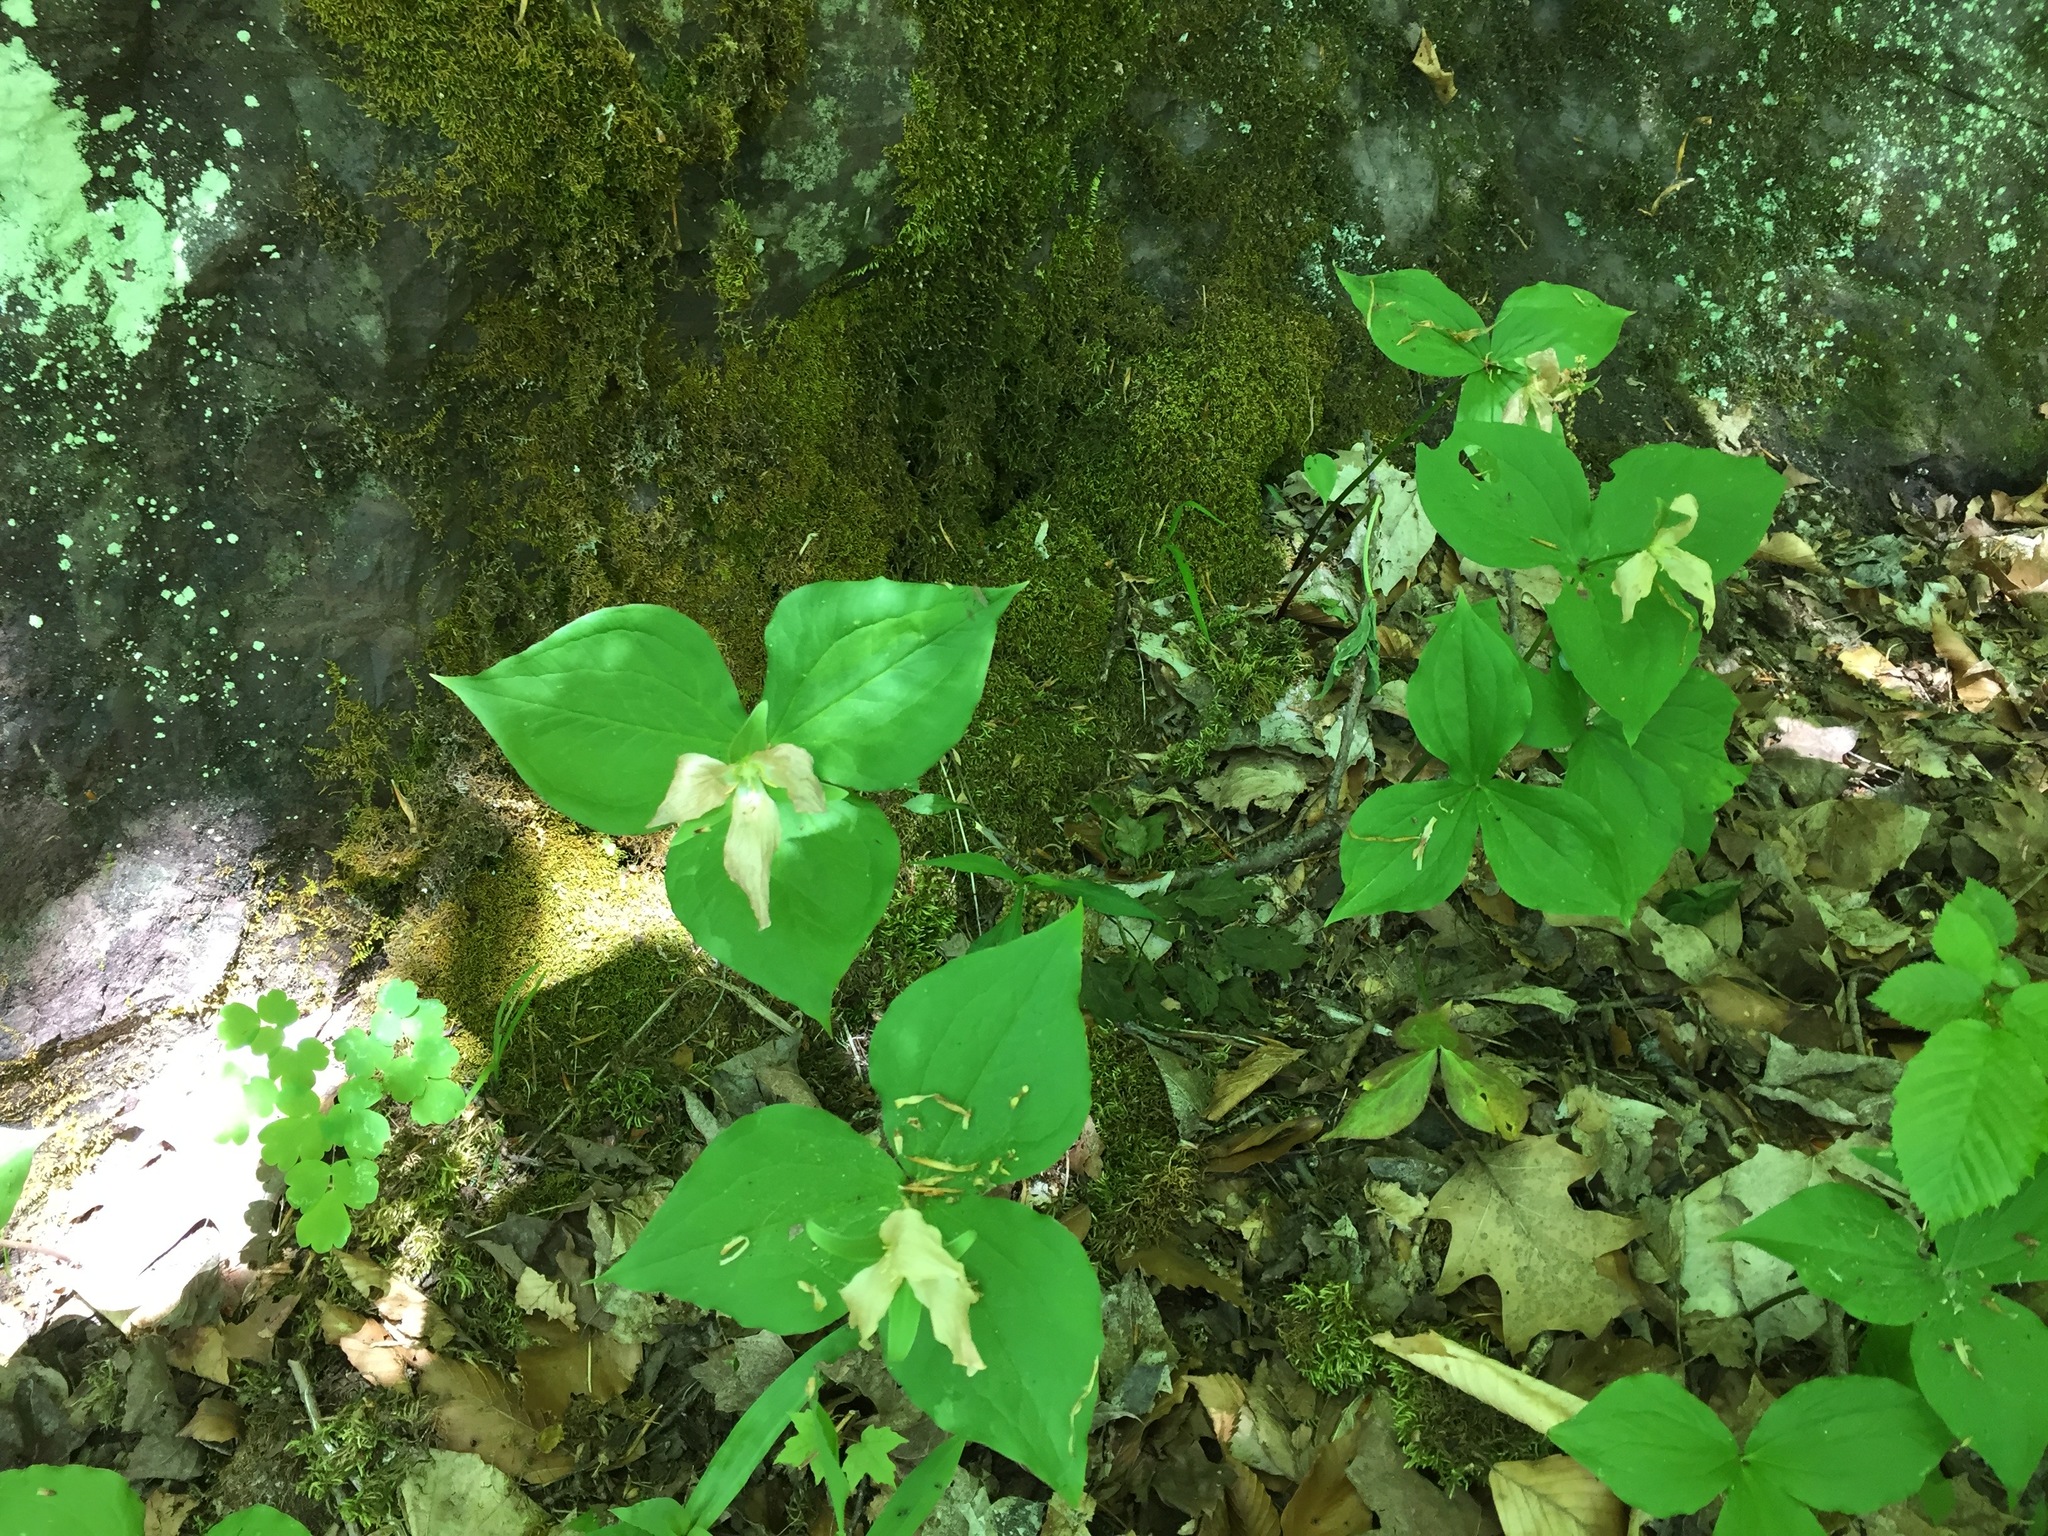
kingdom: Plantae
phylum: Tracheophyta
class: Liliopsida
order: Liliales
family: Melanthiaceae
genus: Trillium
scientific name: Trillium grandiflorum
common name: Great white trillium
